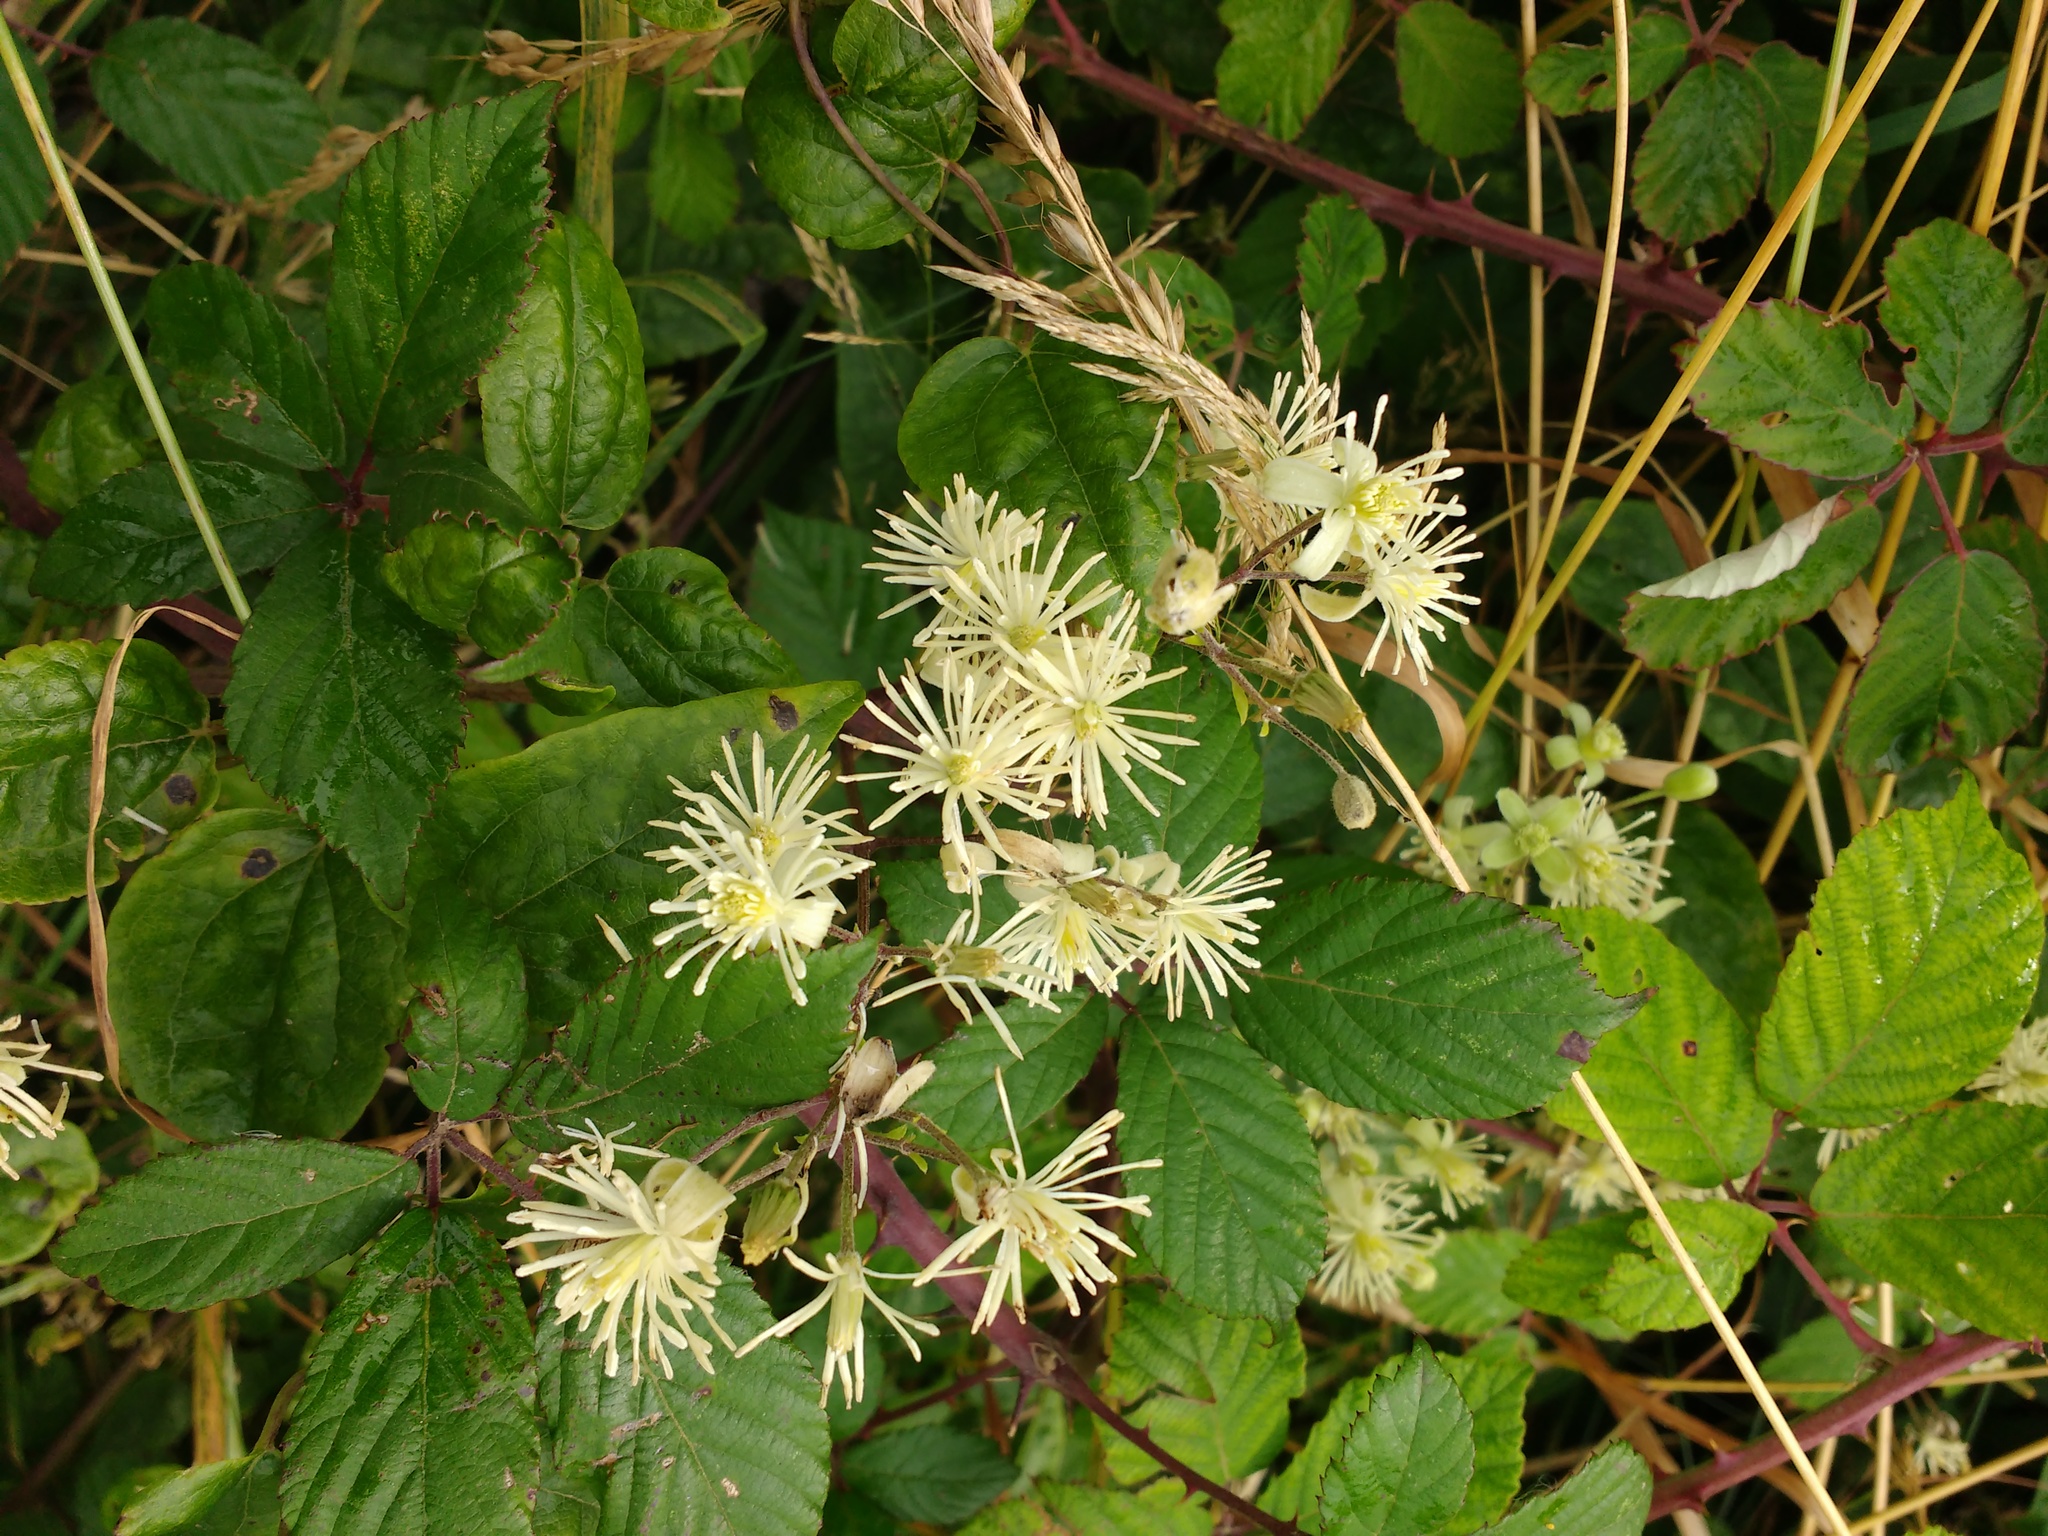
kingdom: Plantae
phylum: Tracheophyta
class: Magnoliopsida
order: Ranunculales
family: Ranunculaceae
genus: Clematis
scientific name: Clematis vitalba
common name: Evergreen clematis
